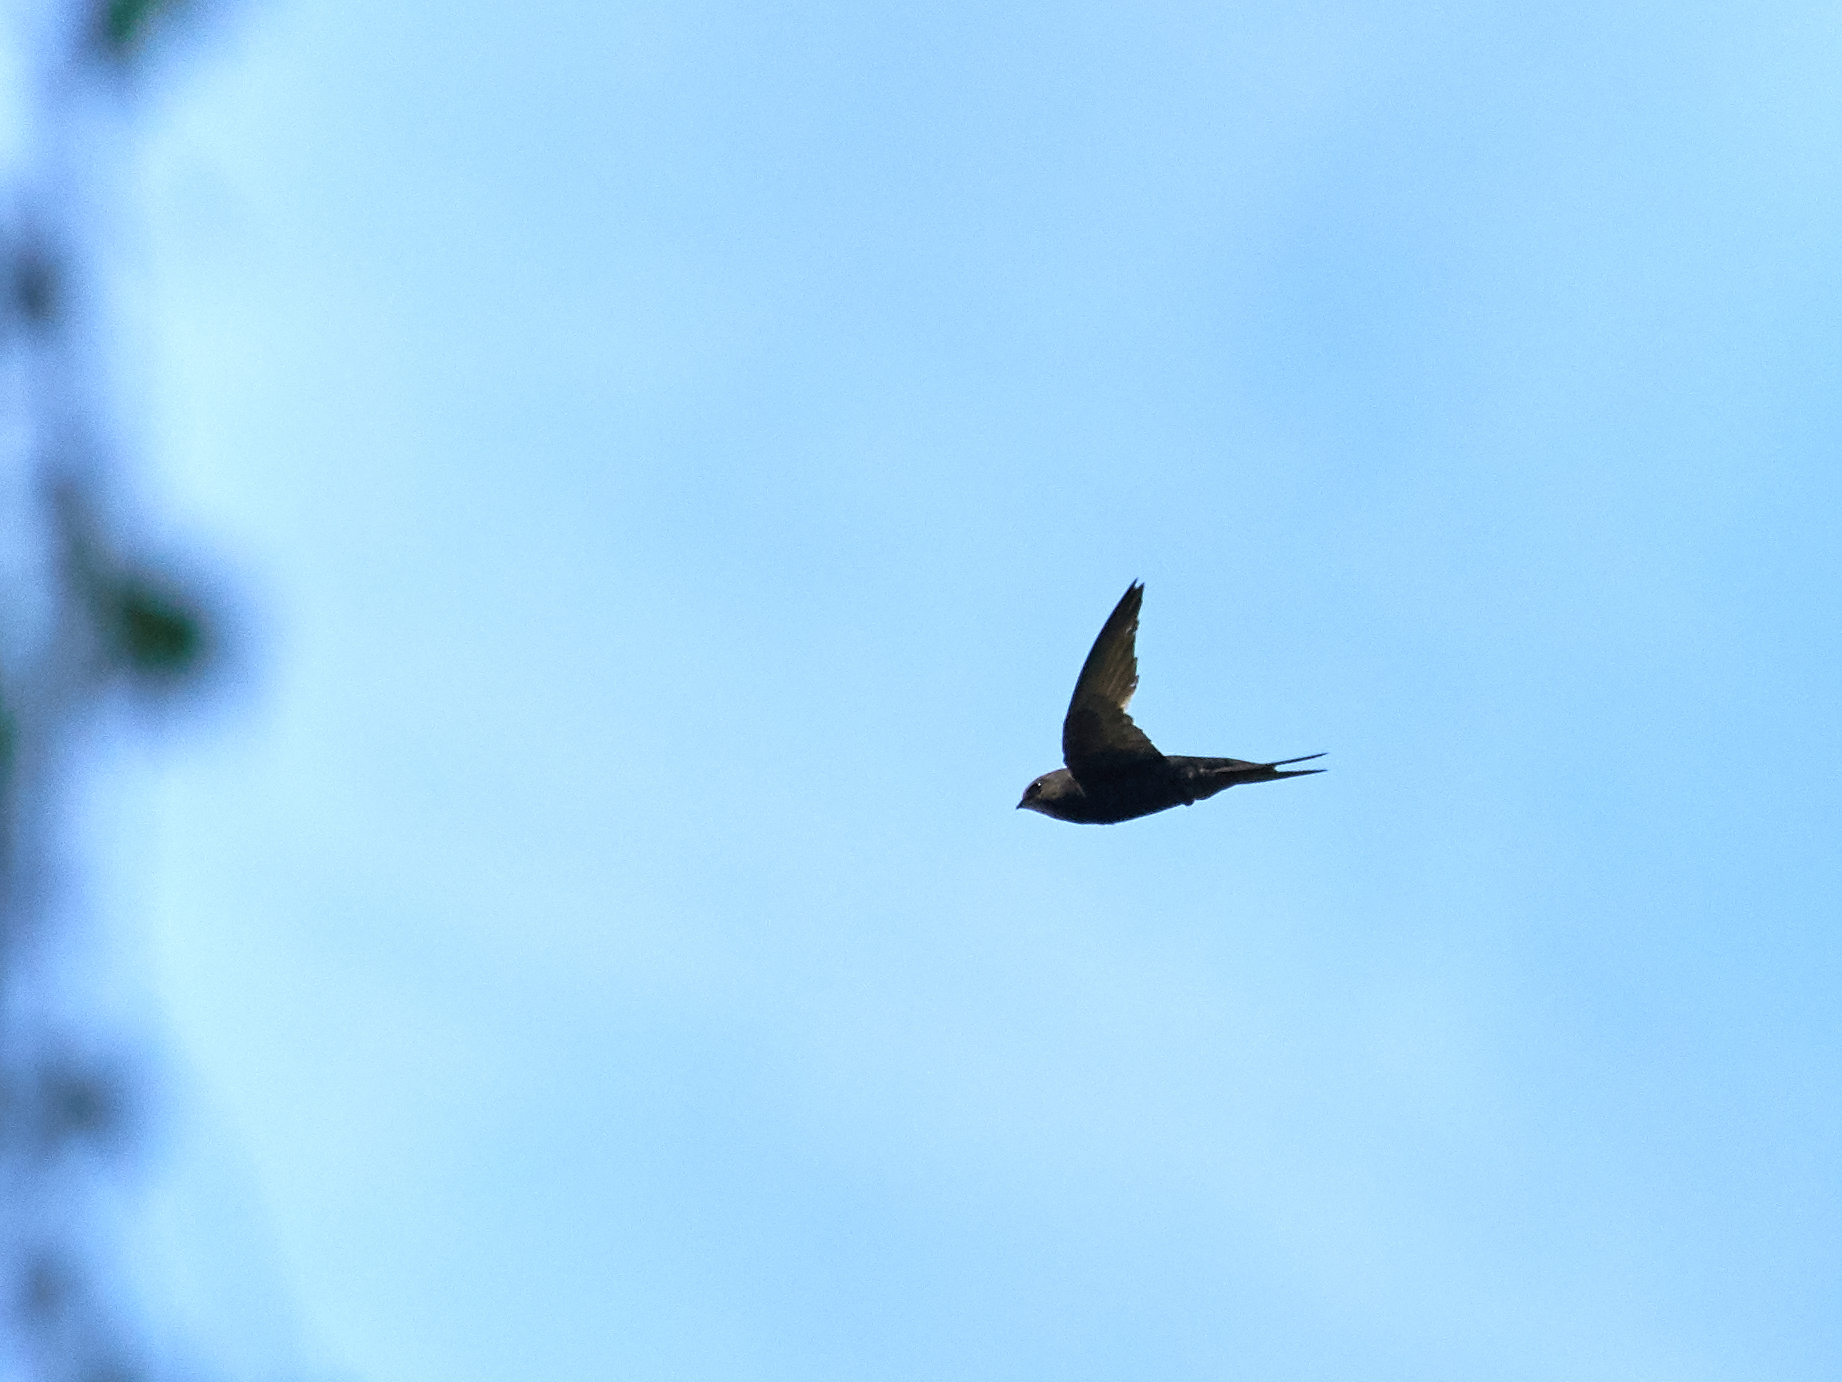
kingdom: Animalia
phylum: Chordata
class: Aves
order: Apodiformes
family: Apodidae
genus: Apus
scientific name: Apus apus
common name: Common swift
